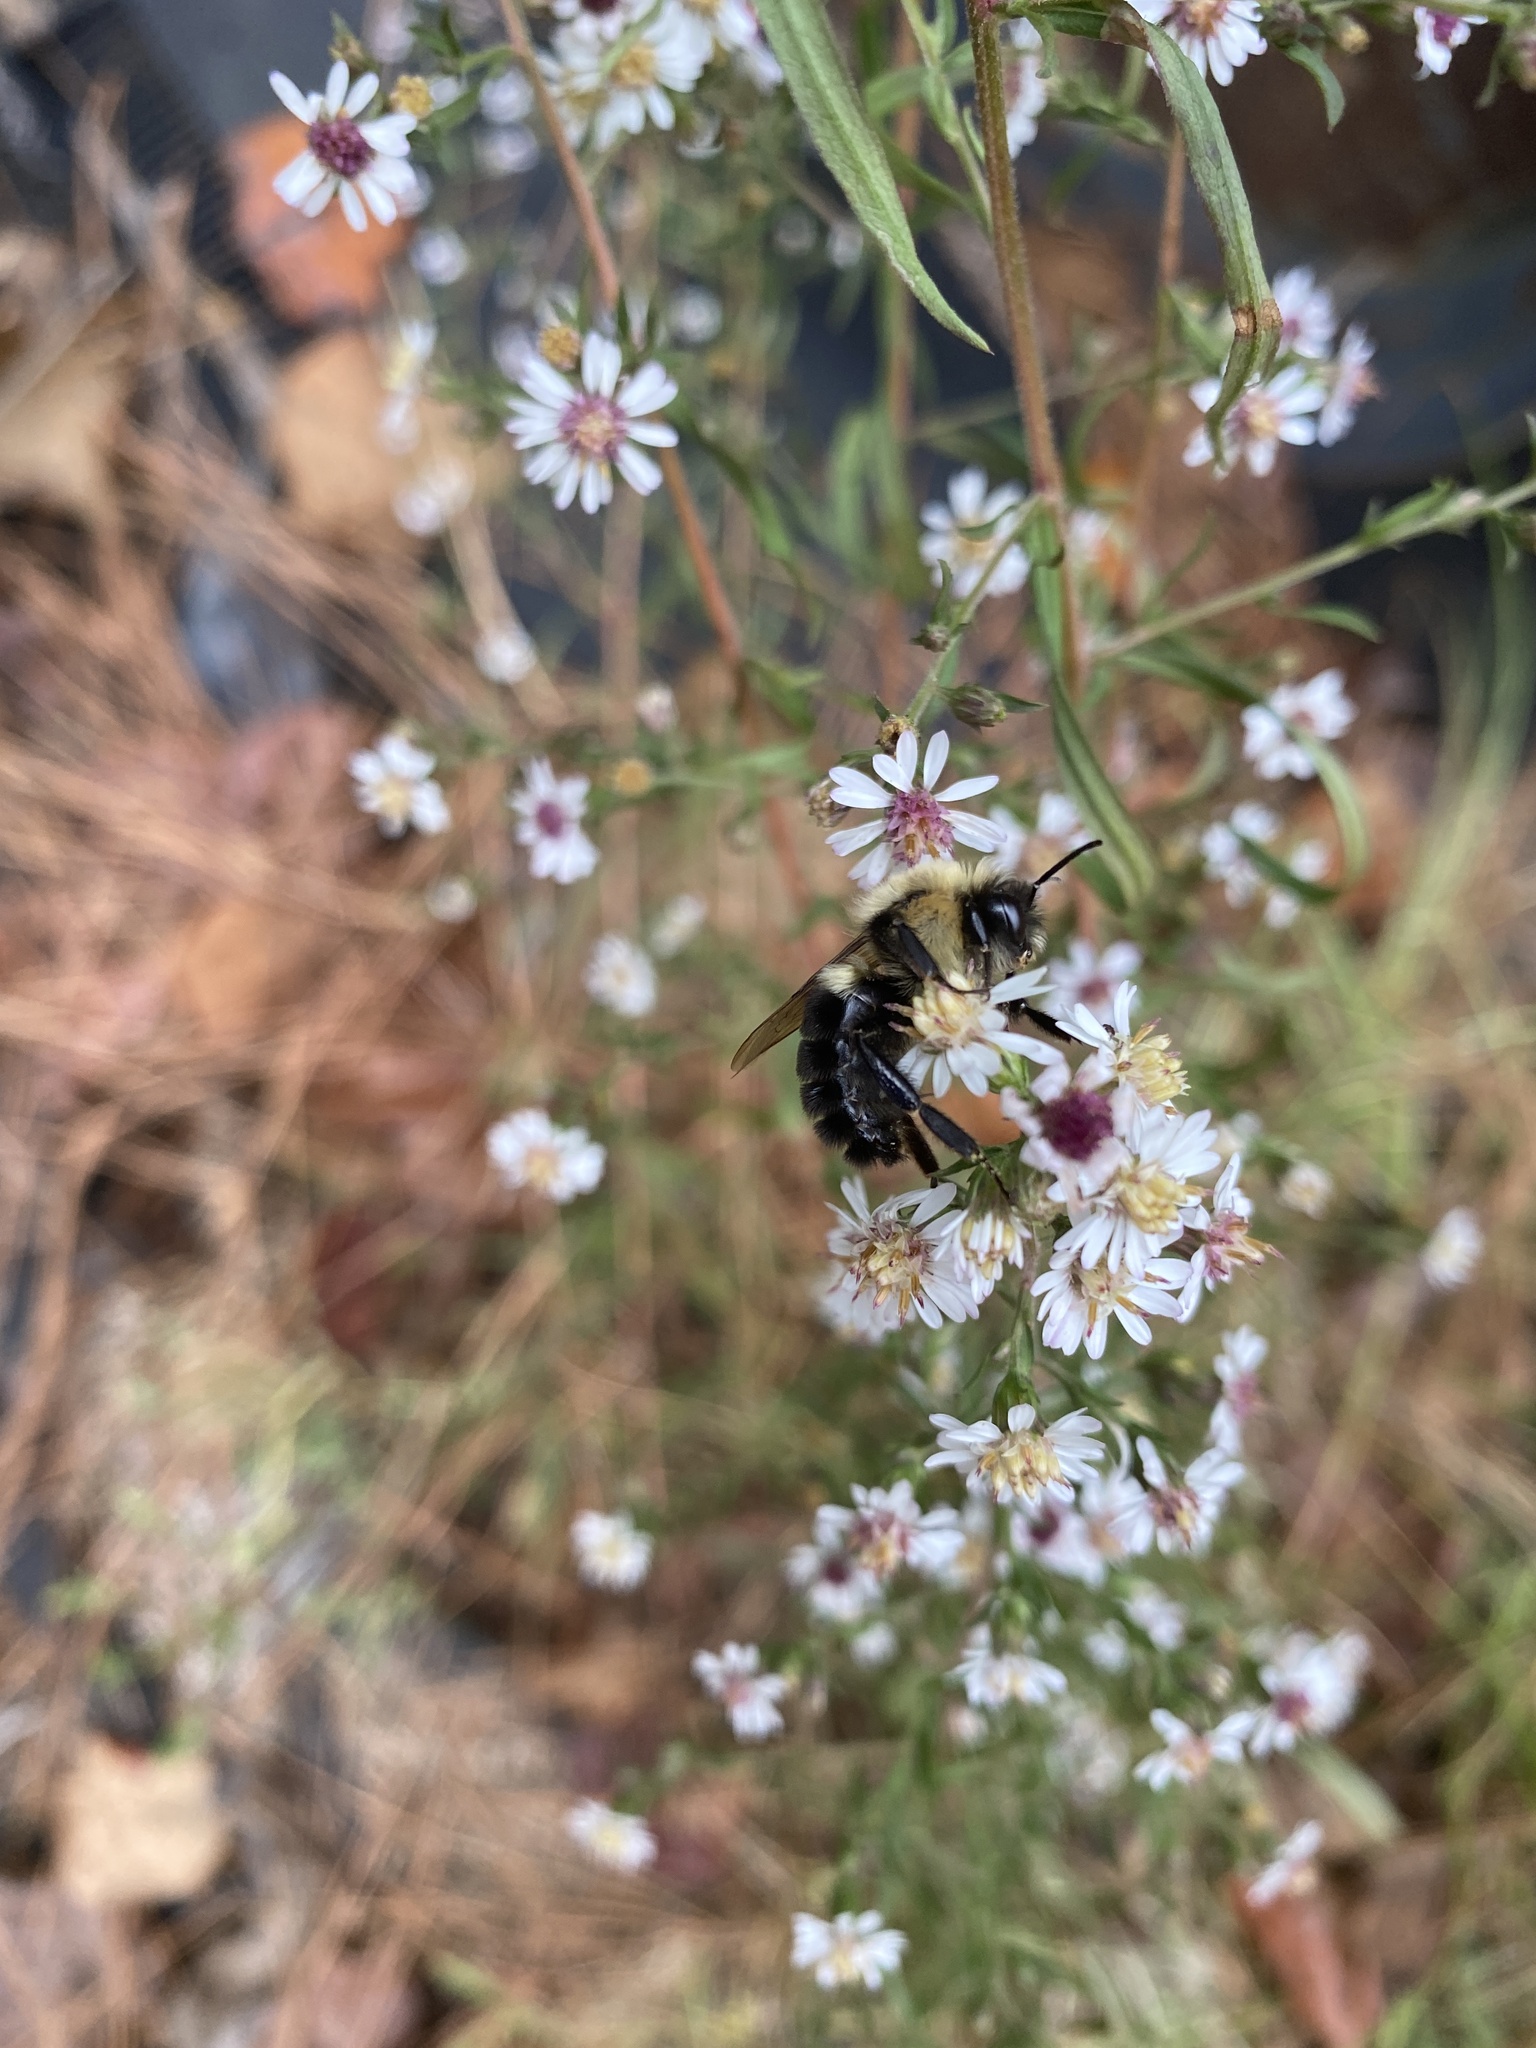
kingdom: Animalia
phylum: Arthropoda
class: Insecta
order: Hymenoptera
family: Apidae
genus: Bombus
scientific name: Bombus impatiens
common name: Common eastern bumble bee
